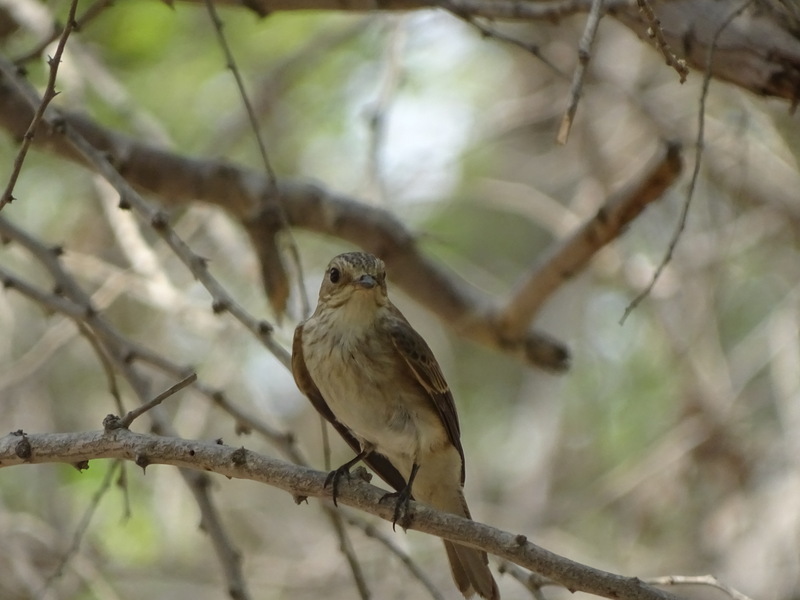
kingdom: Animalia
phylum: Chordata
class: Aves
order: Passeriformes
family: Muscicapidae
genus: Muscicapa
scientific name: Muscicapa striata
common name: Spotted flycatcher
